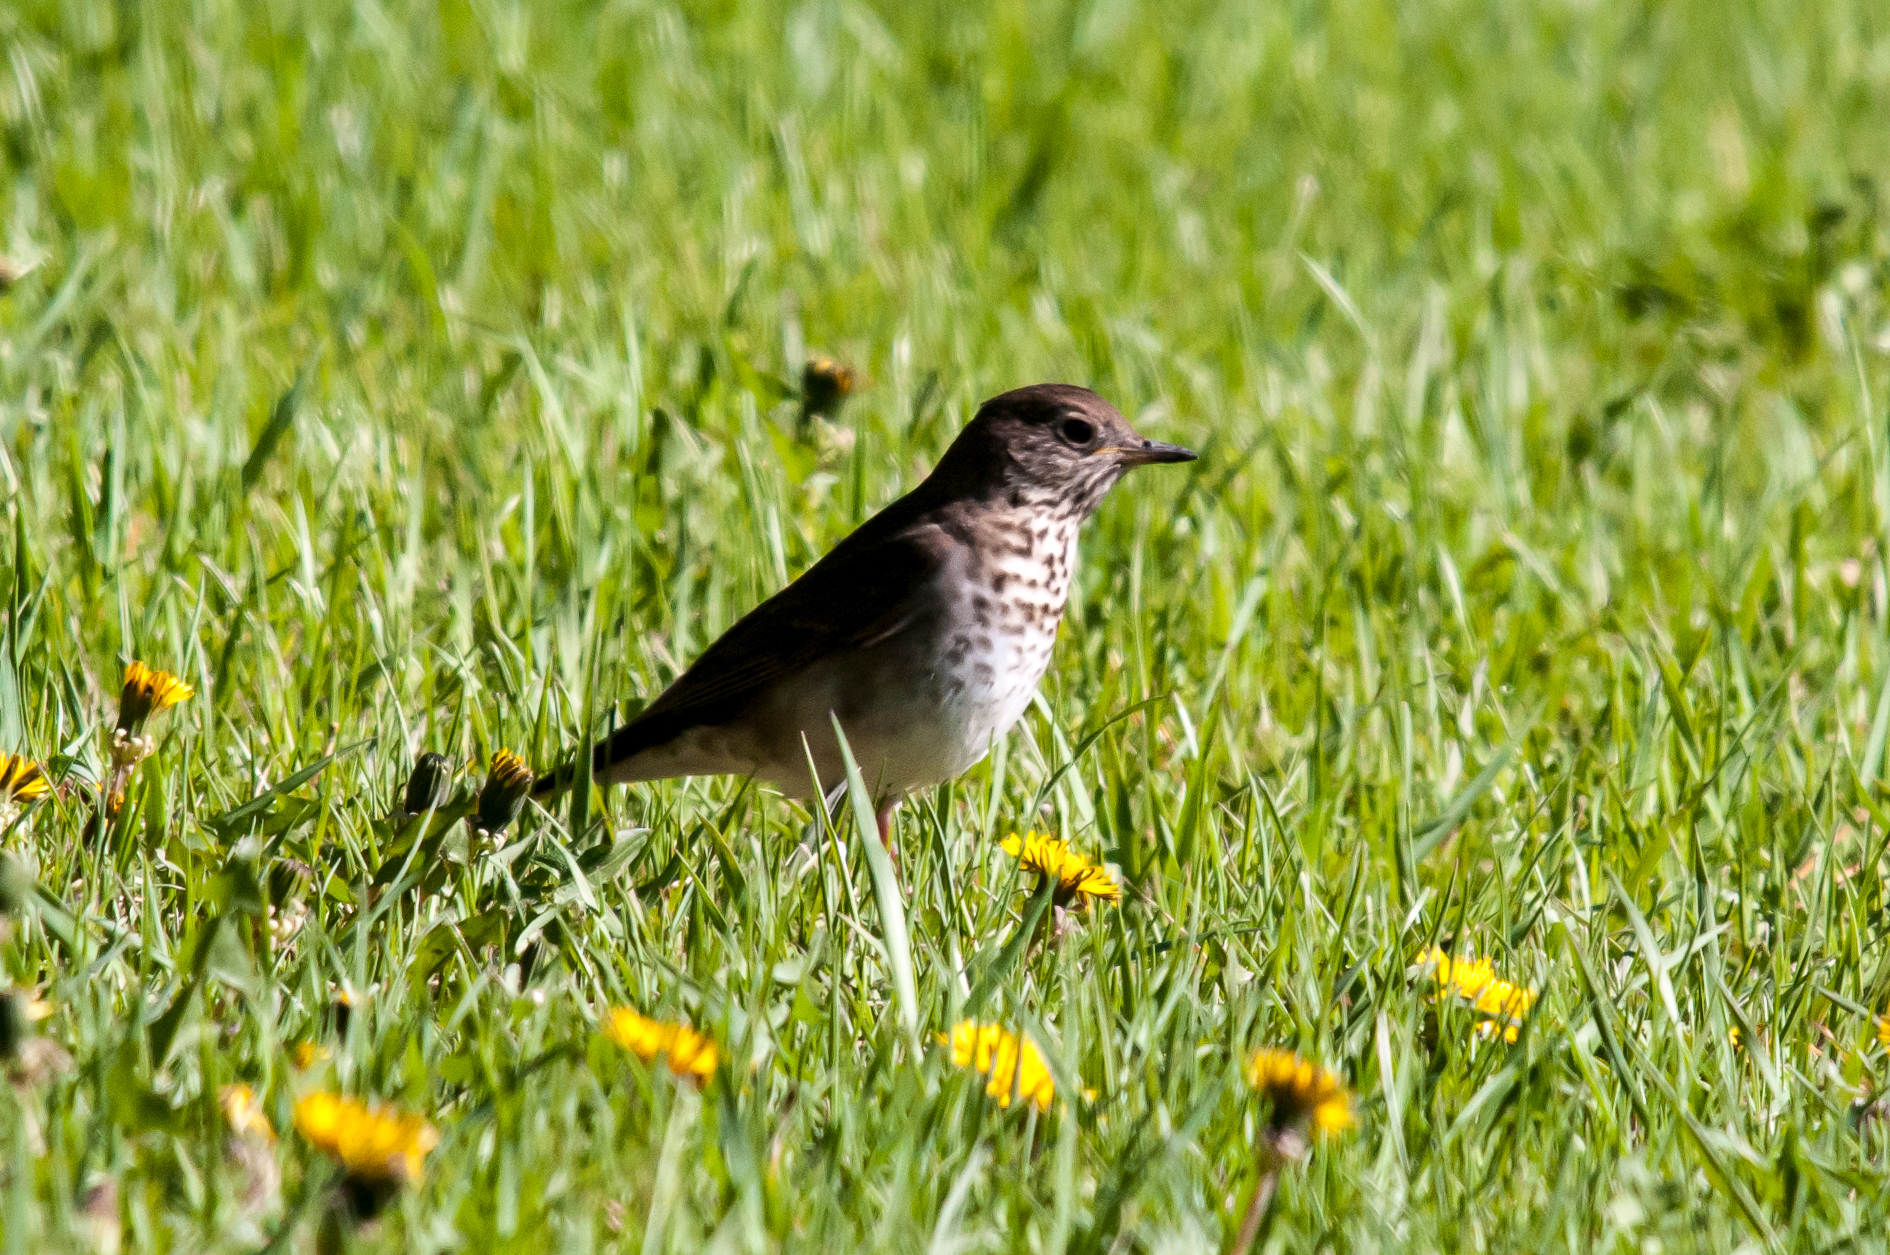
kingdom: Animalia
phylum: Chordata
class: Aves
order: Passeriformes
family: Turdidae
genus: Catharus
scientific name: Catharus minimus
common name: Grey-cheeked thrush
